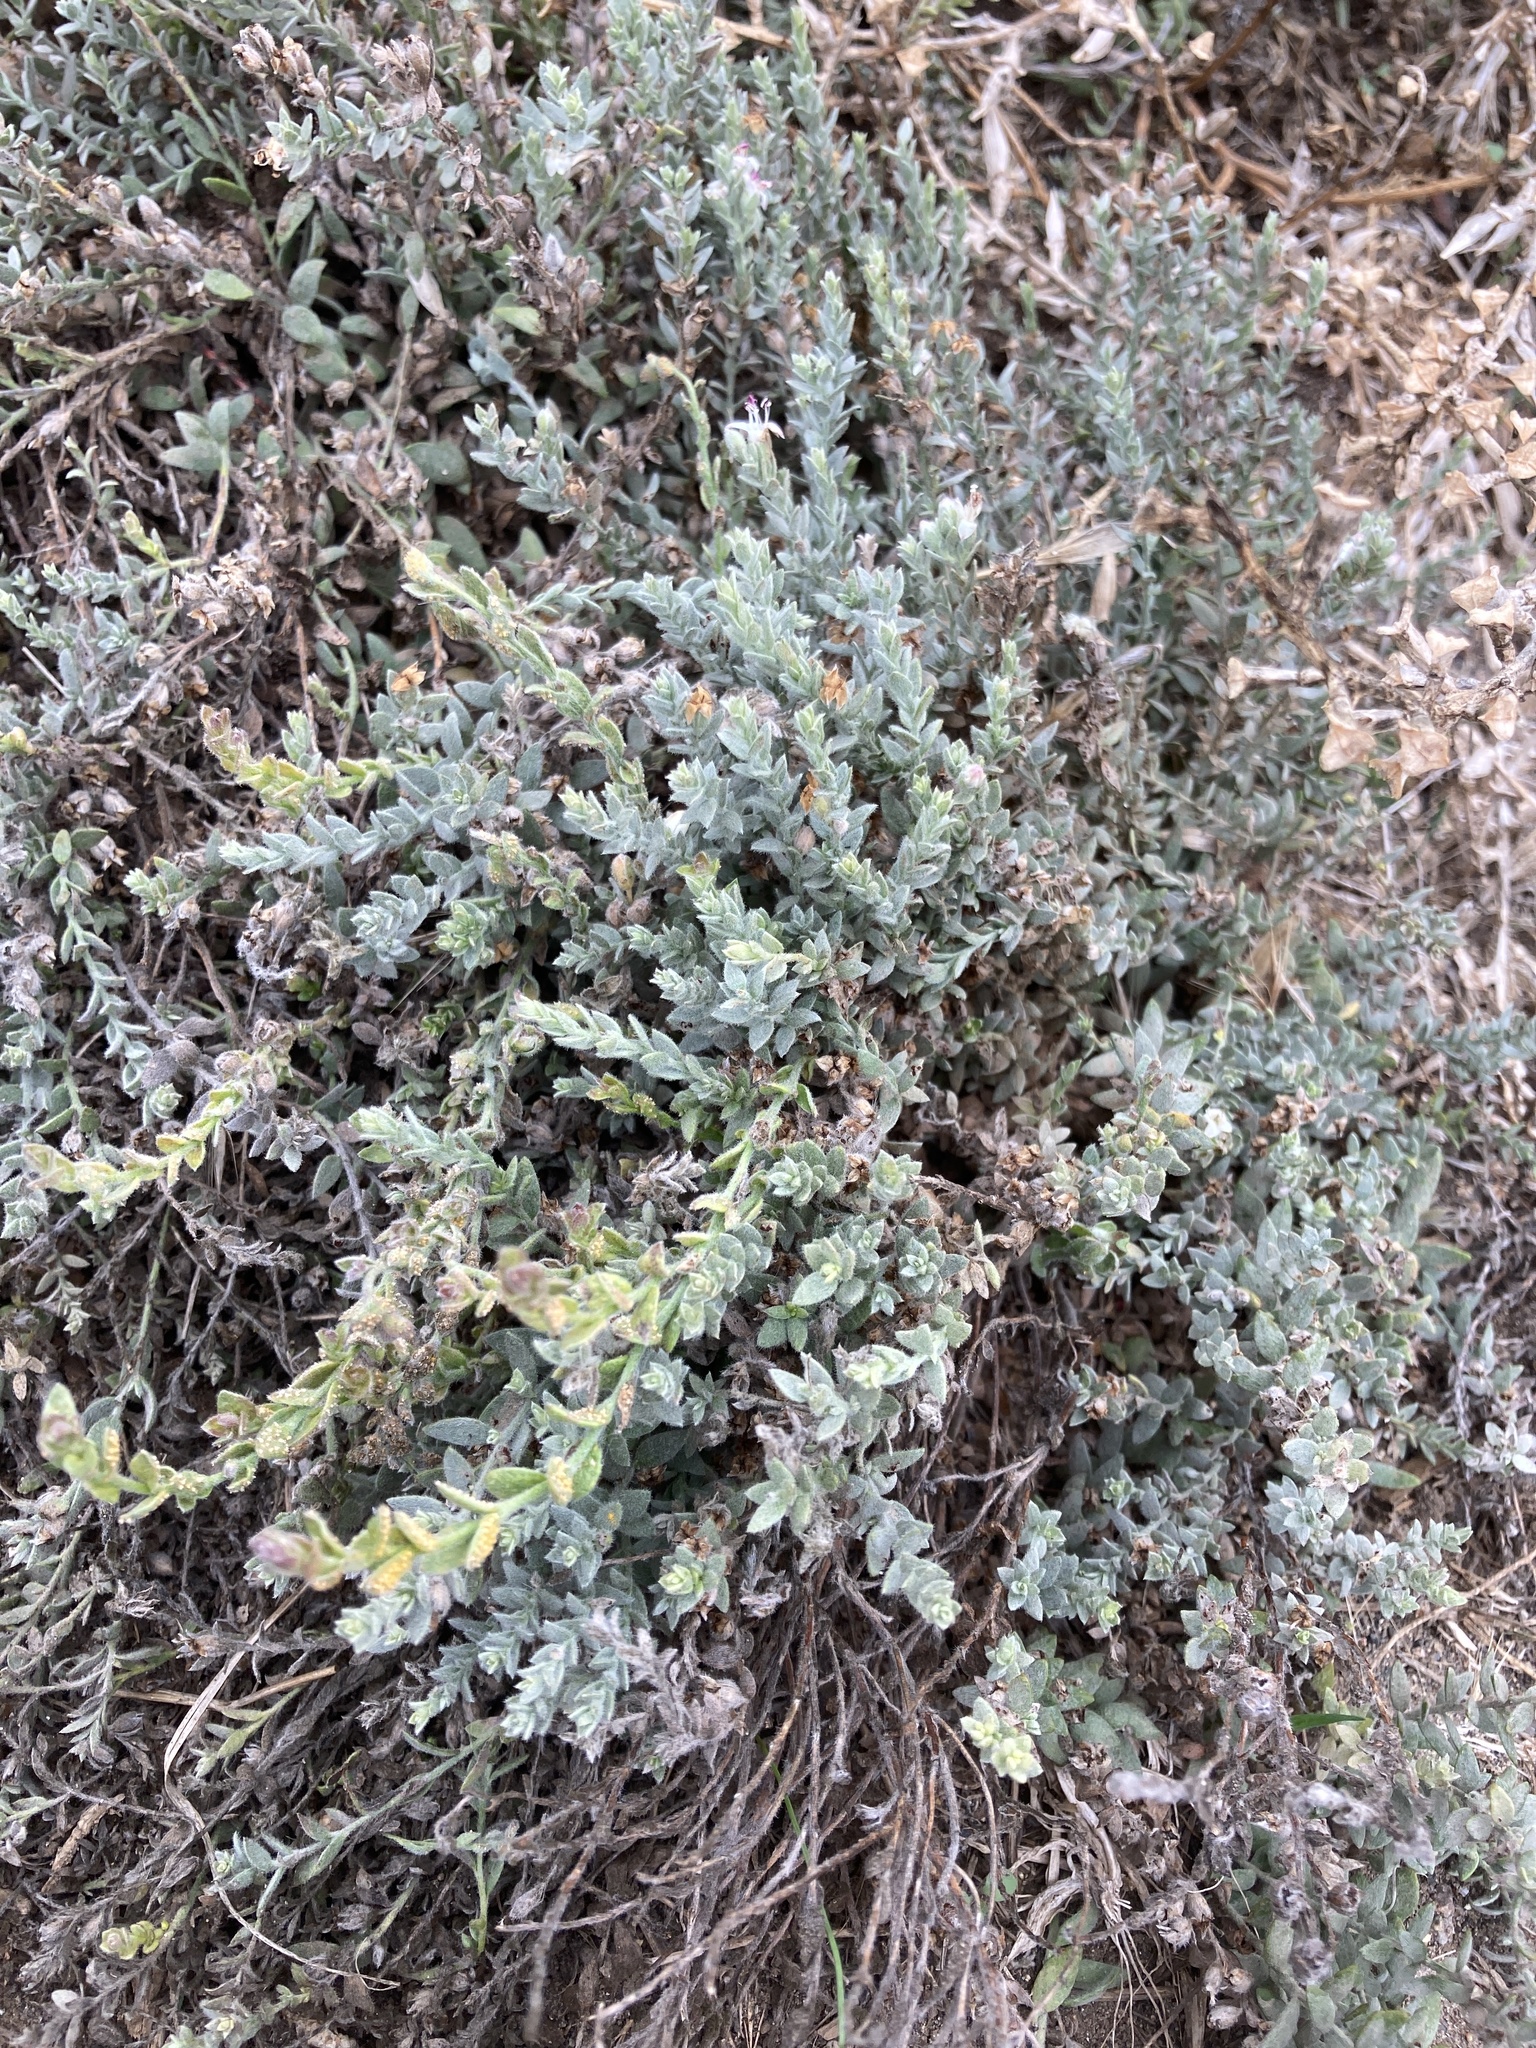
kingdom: Plantae
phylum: Tracheophyta
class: Magnoliopsida
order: Solanales
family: Convolvulaceae
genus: Cressa
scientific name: Cressa truxillensis
